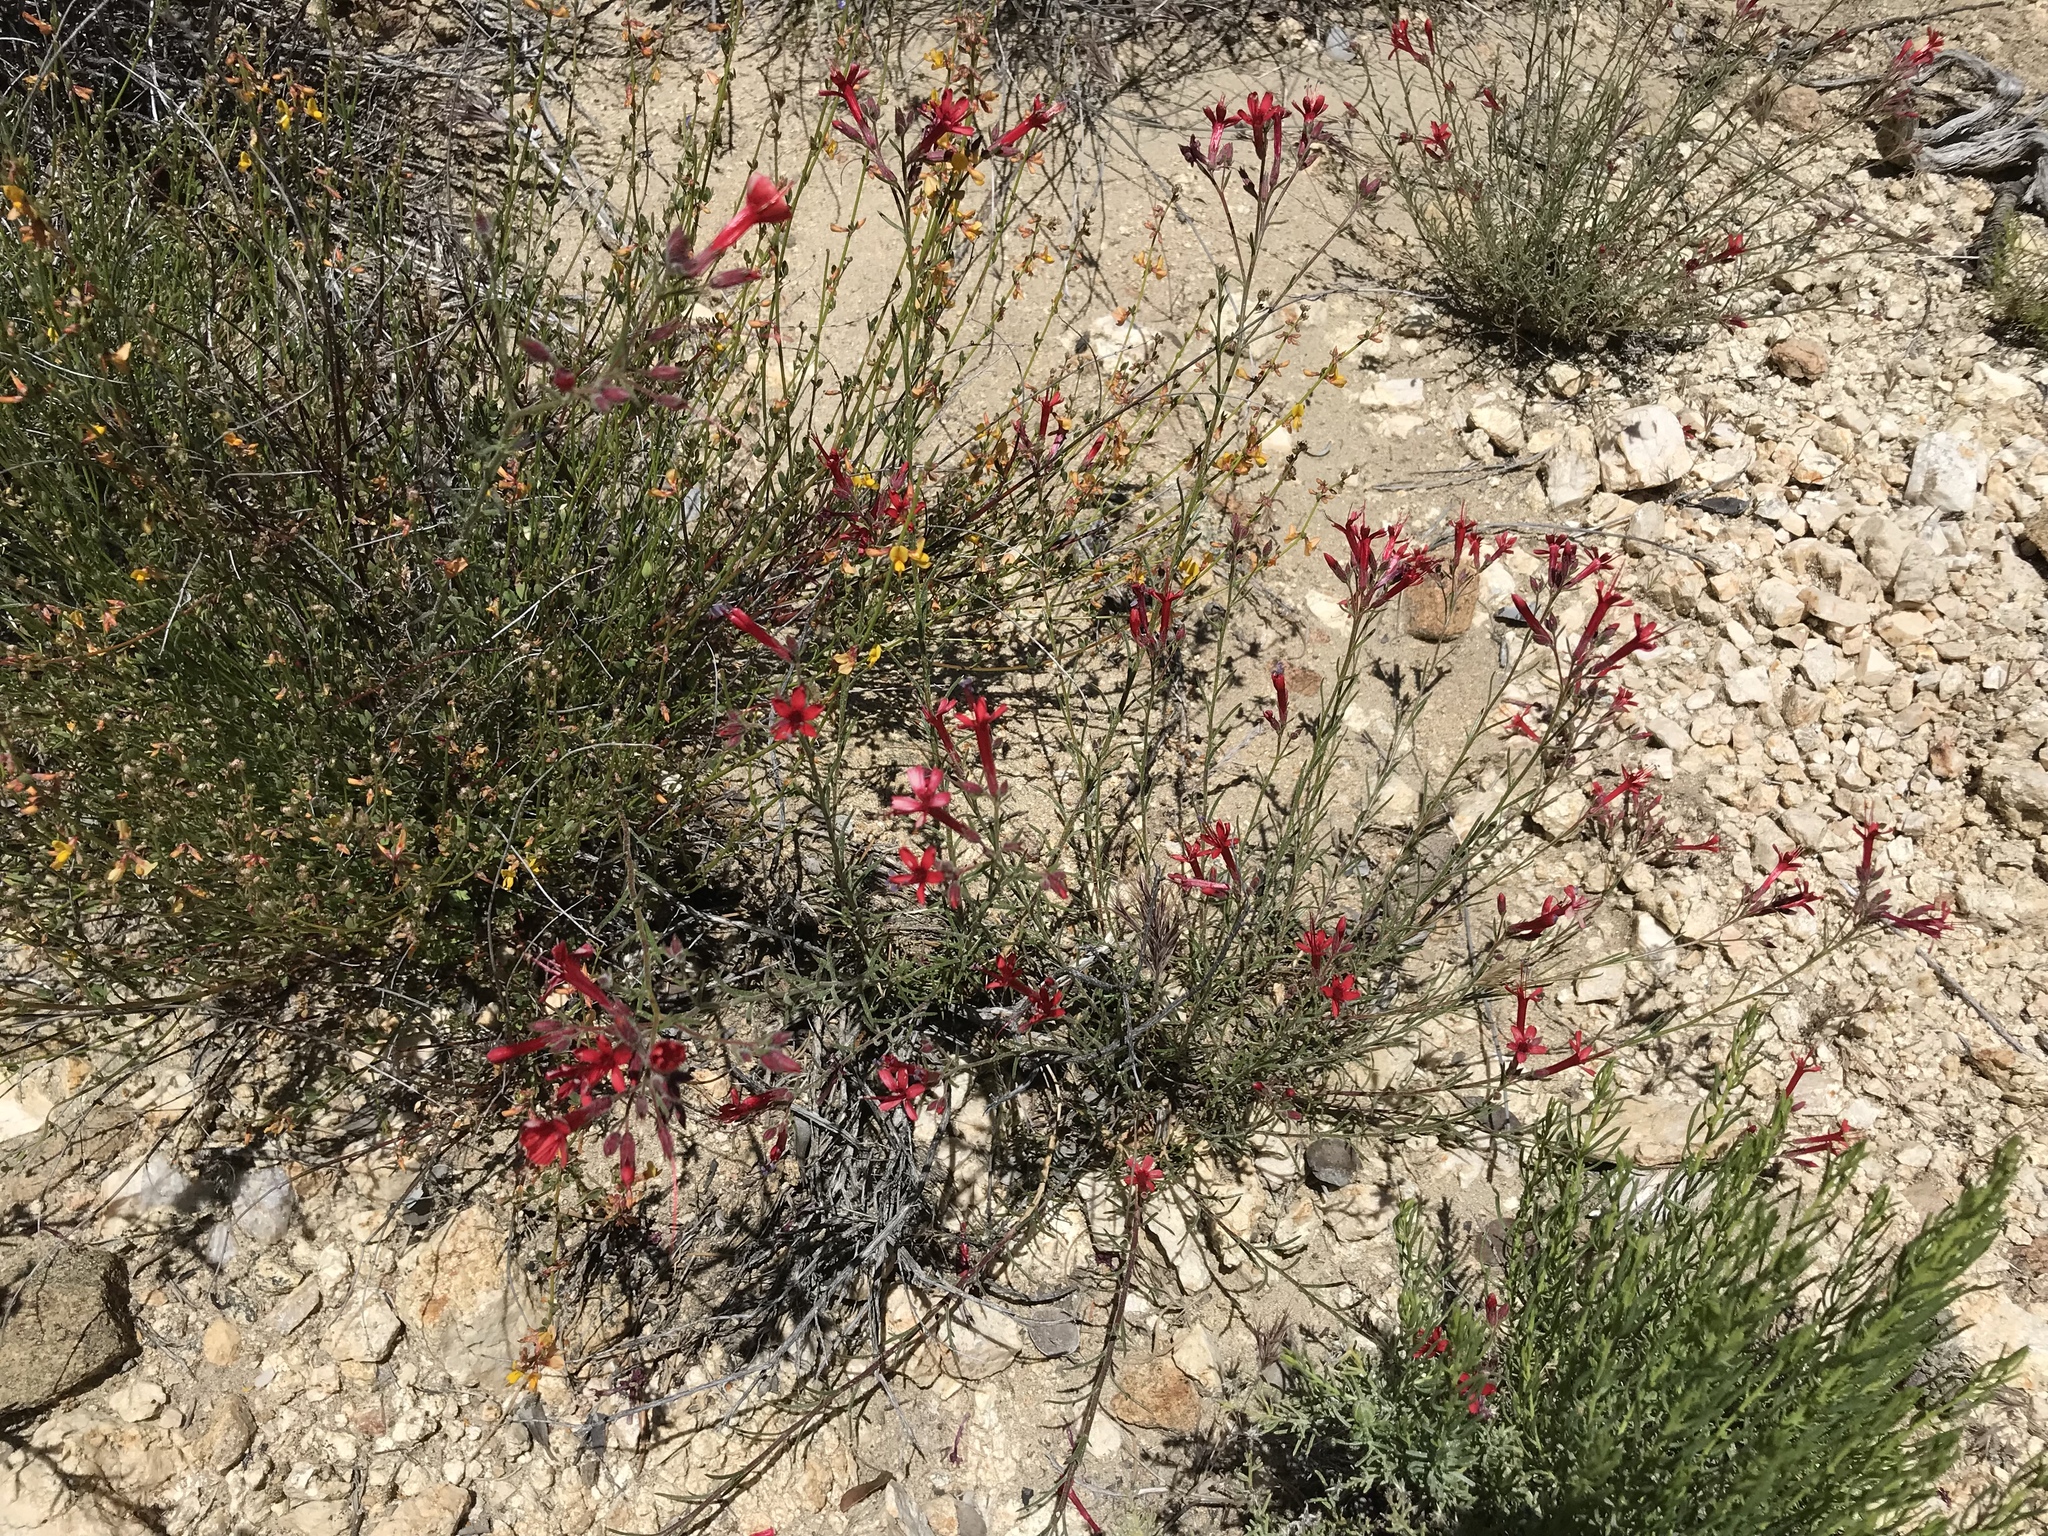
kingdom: Plantae
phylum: Tracheophyta
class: Magnoliopsida
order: Ericales
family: Polemoniaceae
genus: Ipomopsis
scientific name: Ipomopsis tenuifolia
